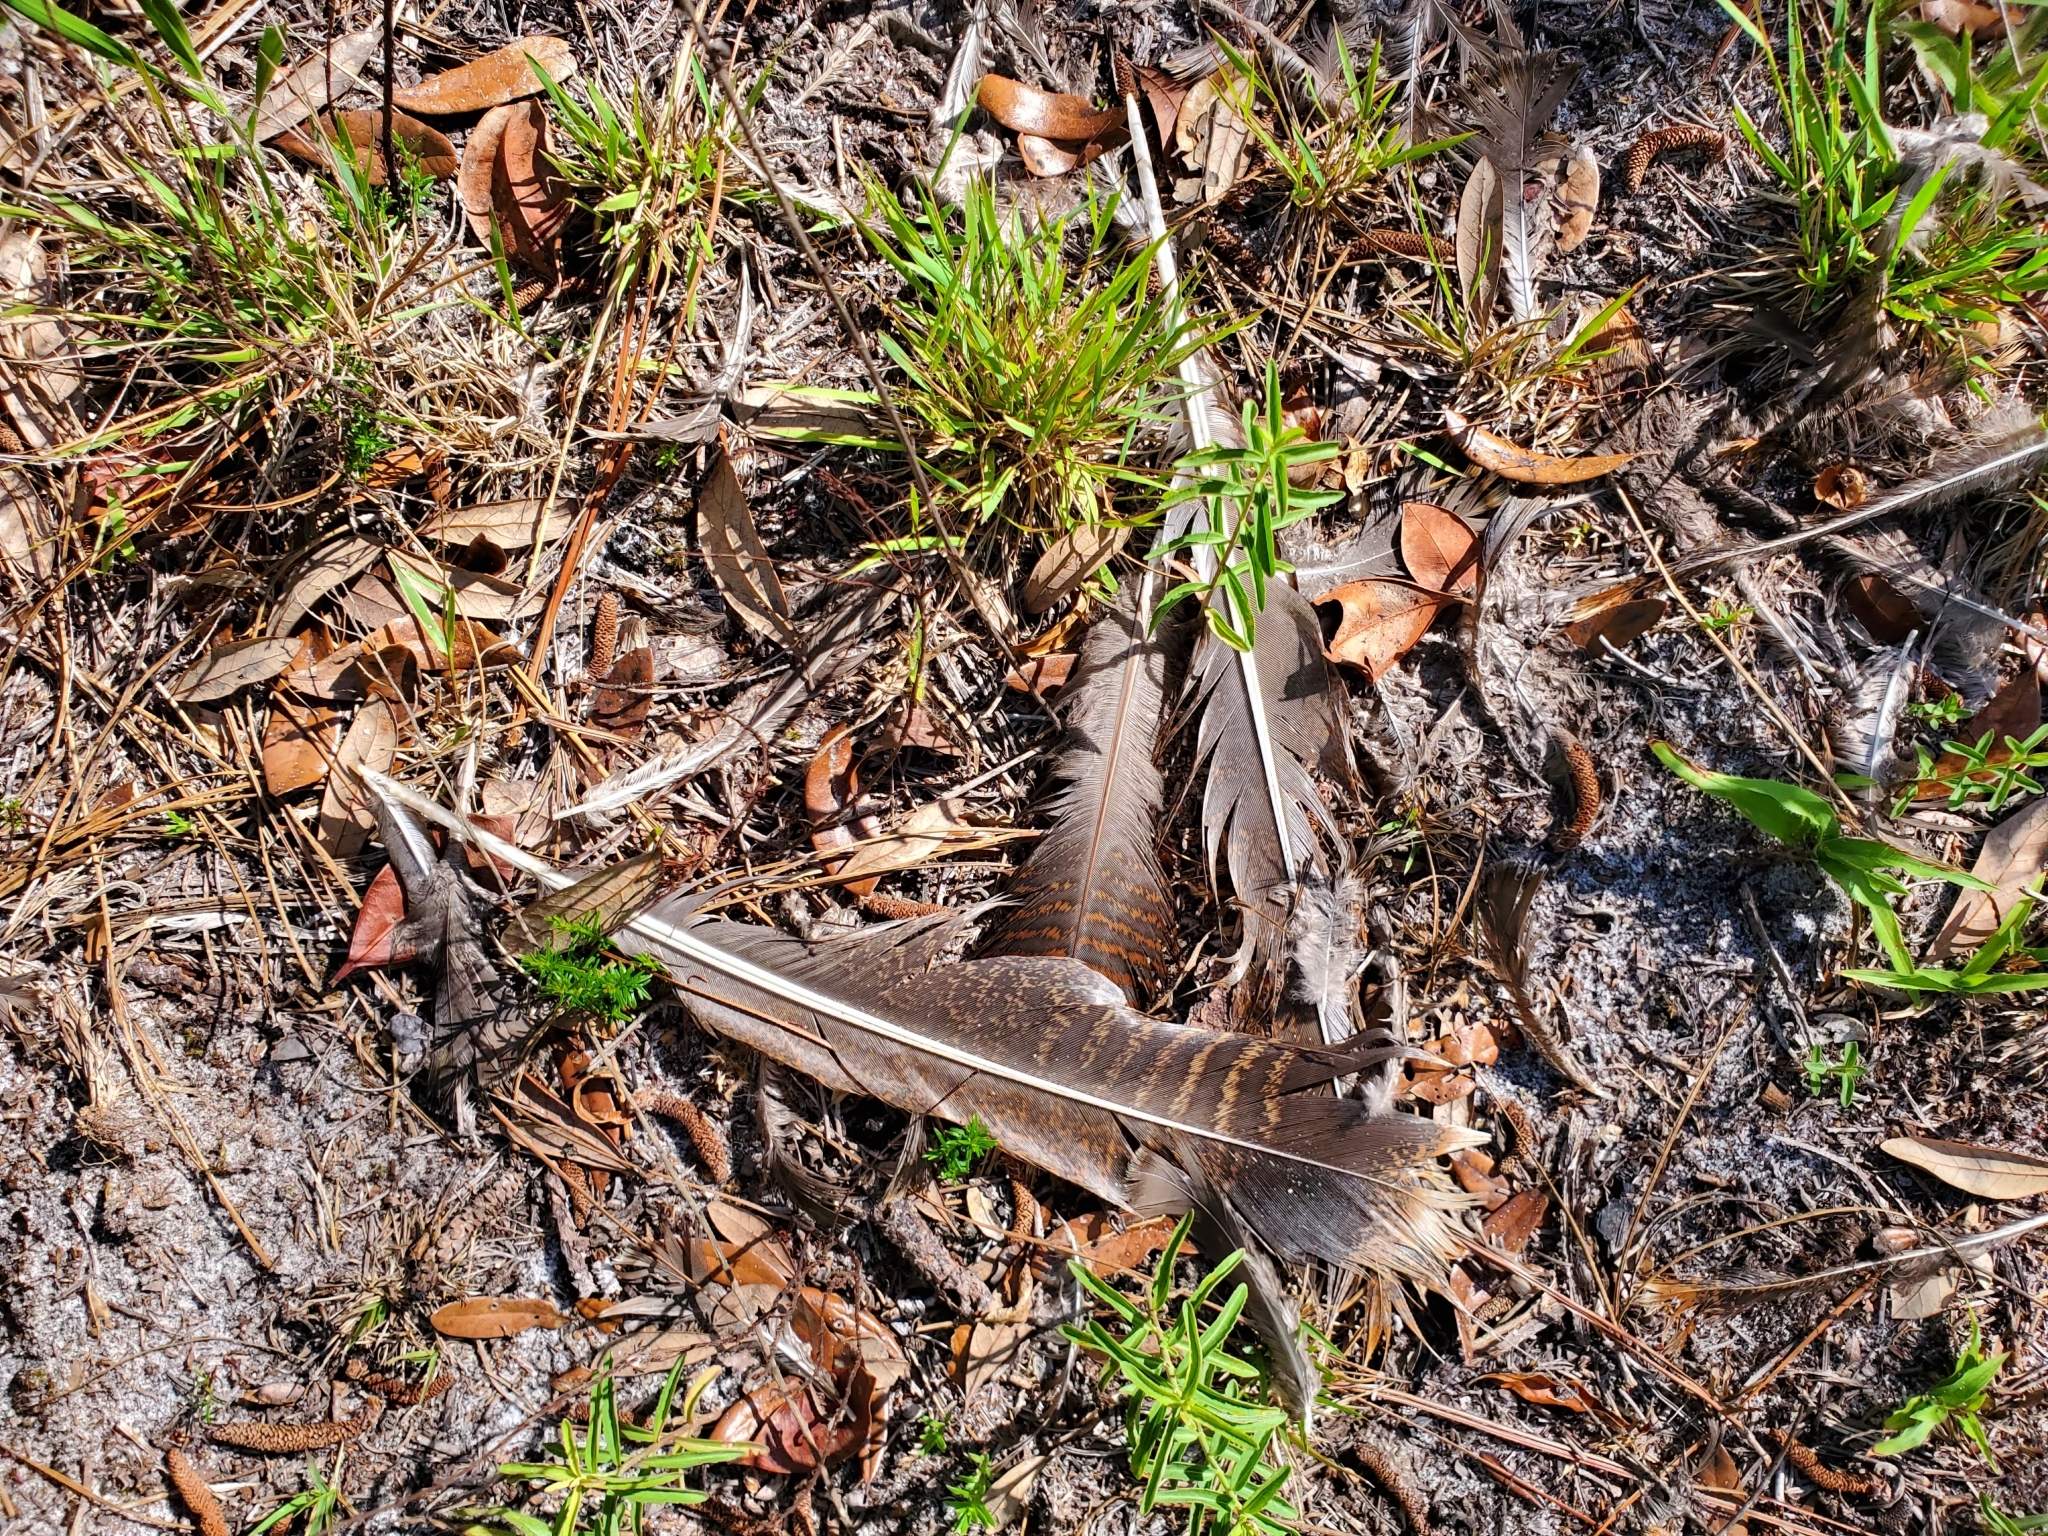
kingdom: Animalia
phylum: Chordata
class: Aves
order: Galliformes
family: Phasianidae
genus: Meleagris
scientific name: Meleagris gallopavo
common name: Wild turkey
